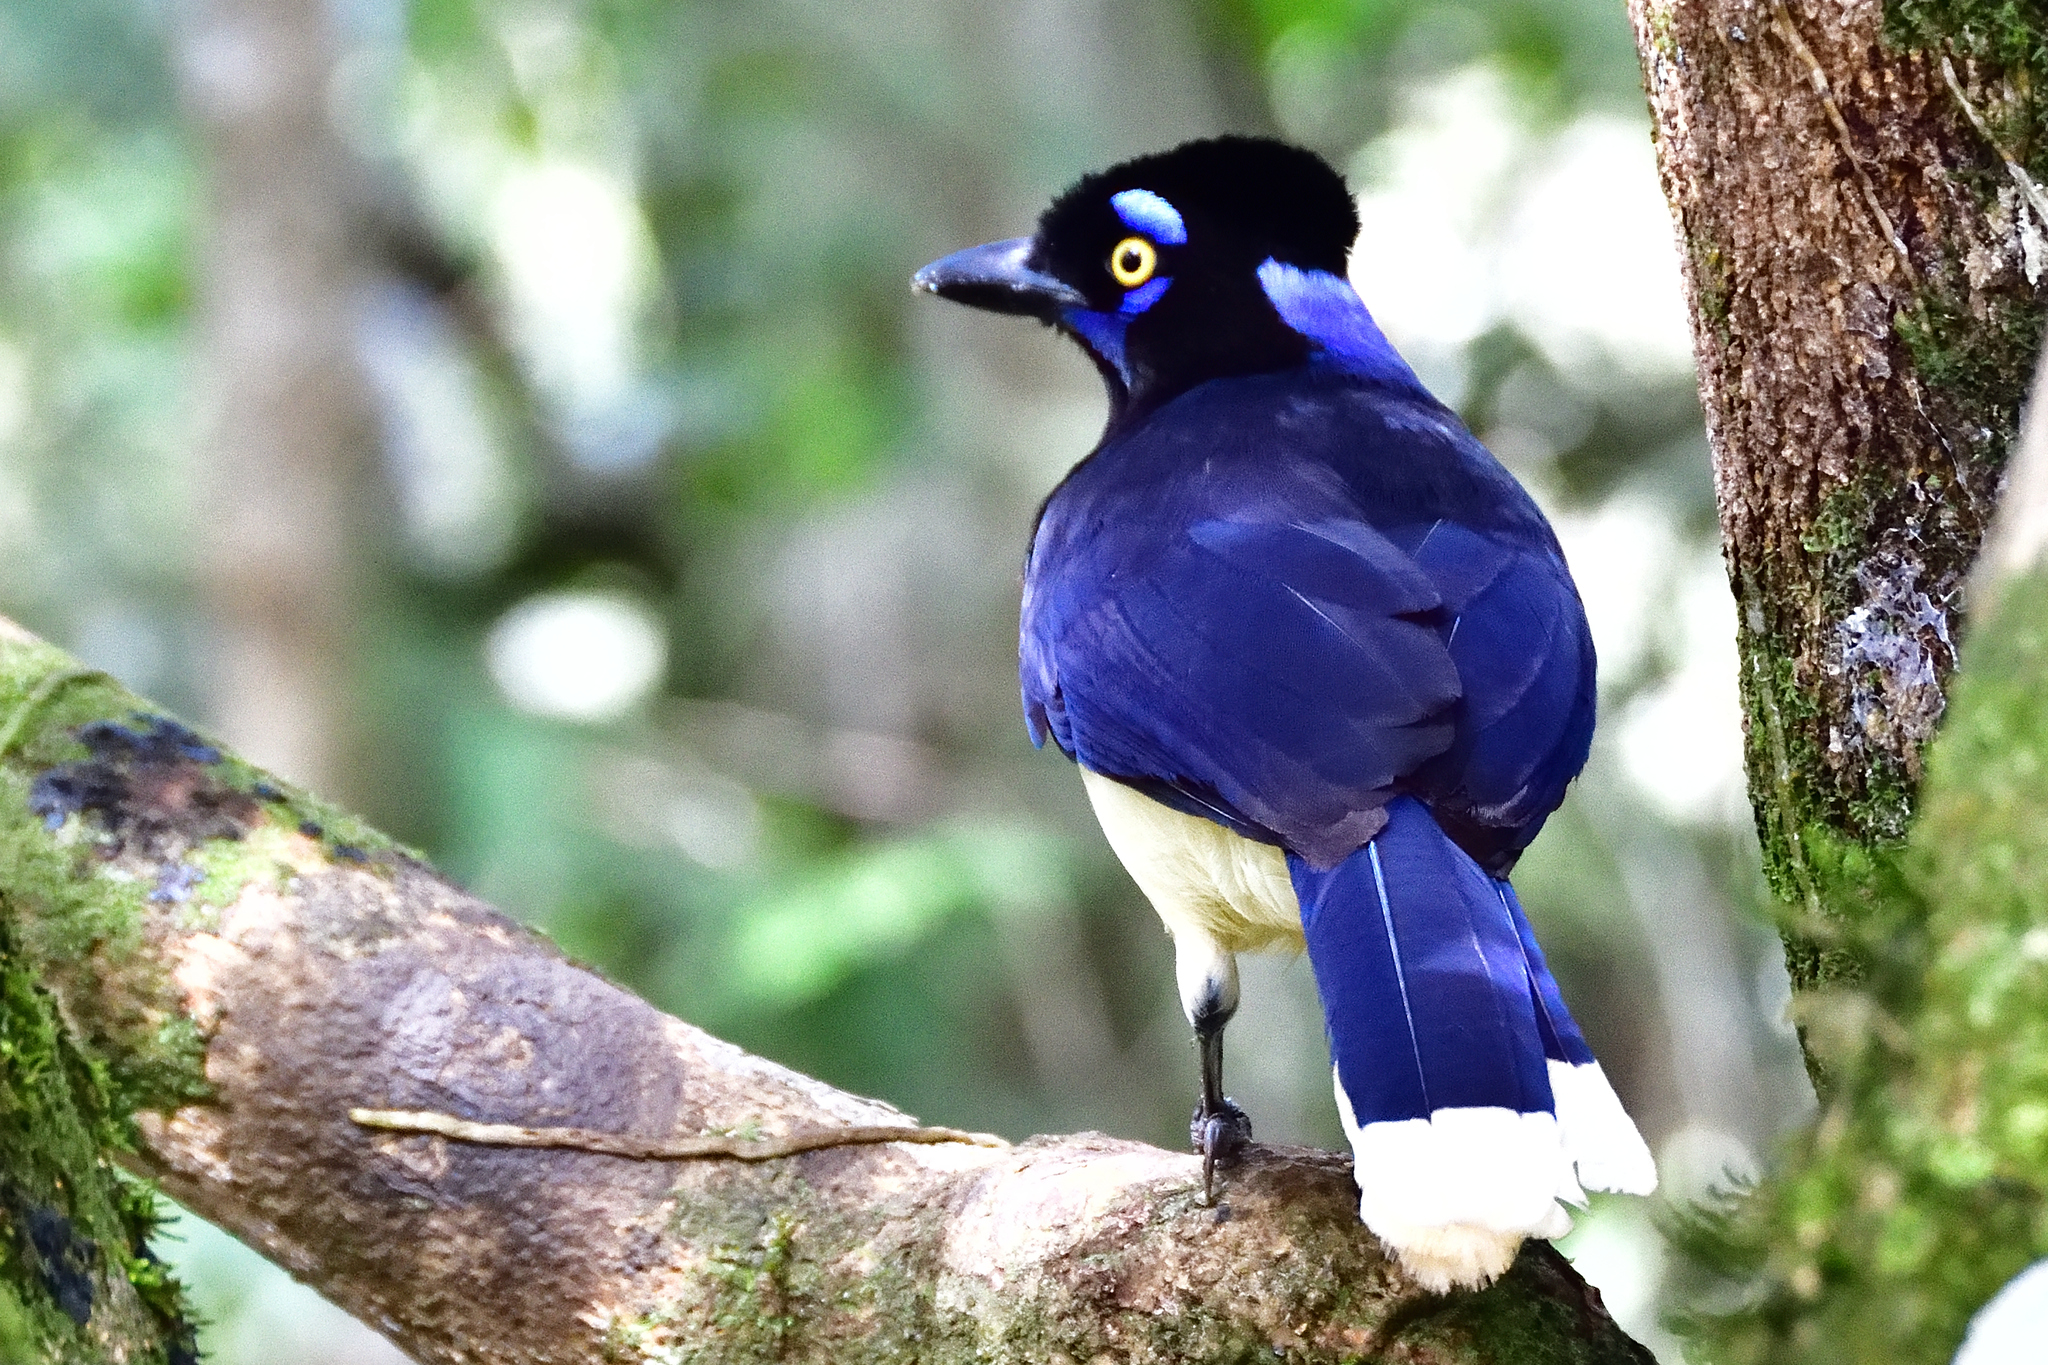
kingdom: Animalia
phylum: Chordata
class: Aves
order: Passeriformes
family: Corvidae
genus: Cyanocorax
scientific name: Cyanocorax chrysops
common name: Plush-crested jay
